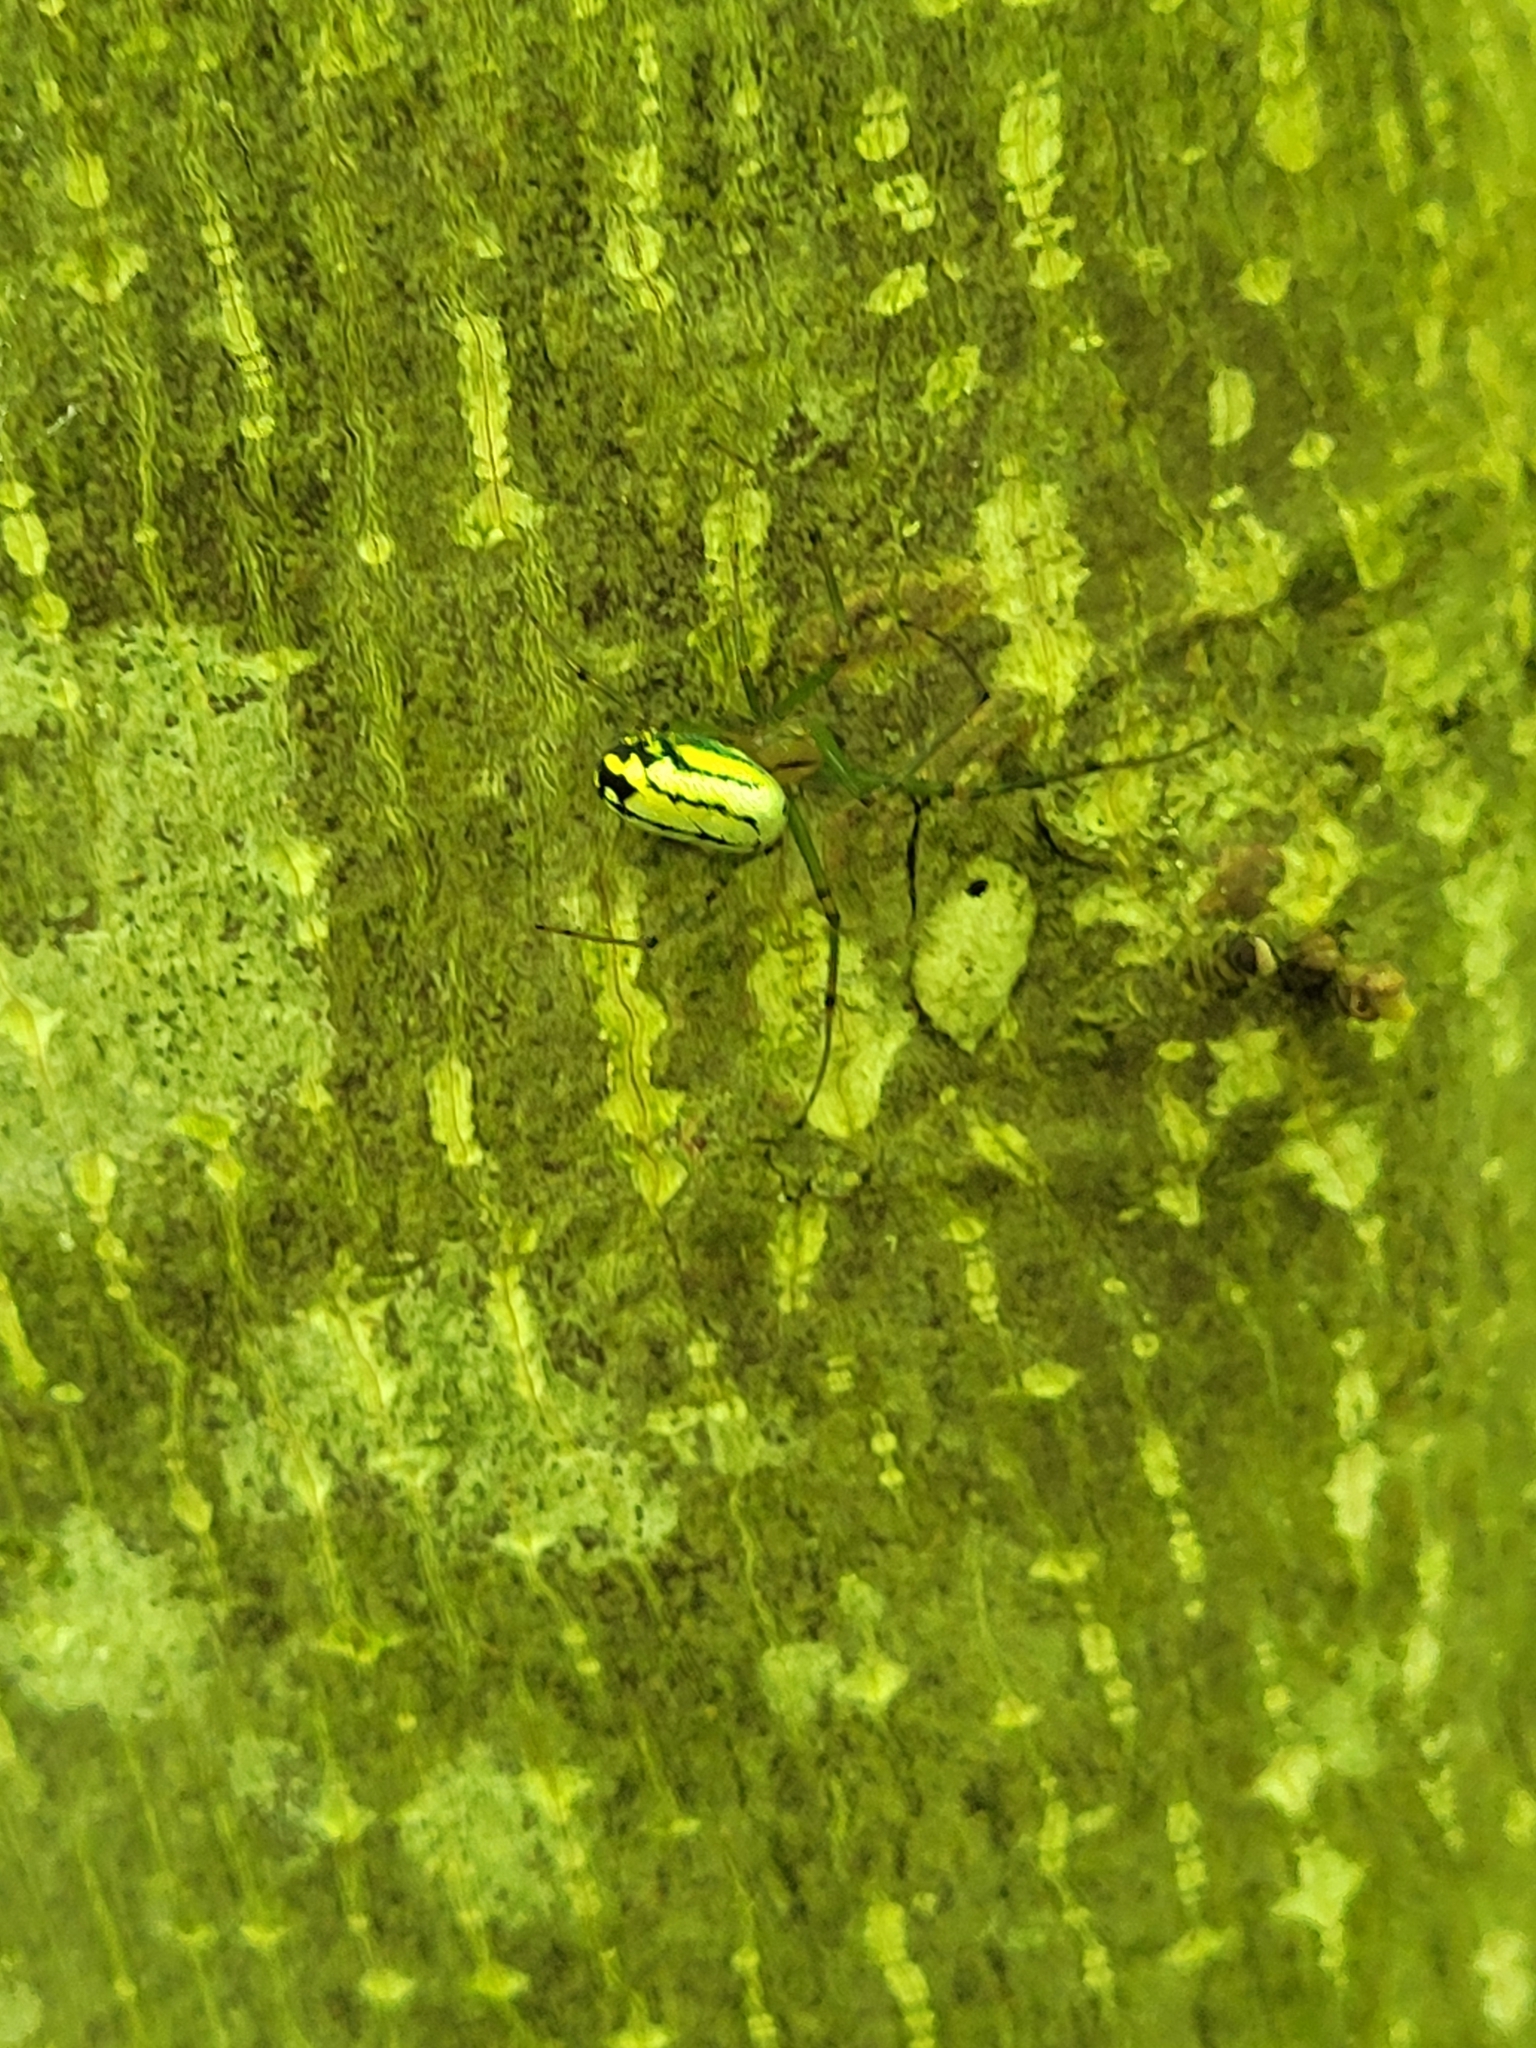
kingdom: Animalia
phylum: Arthropoda
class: Arachnida
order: Araneae
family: Tetragnathidae
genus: Leucauge
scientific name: Leucauge venusta
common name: Longjawed orb weavers
